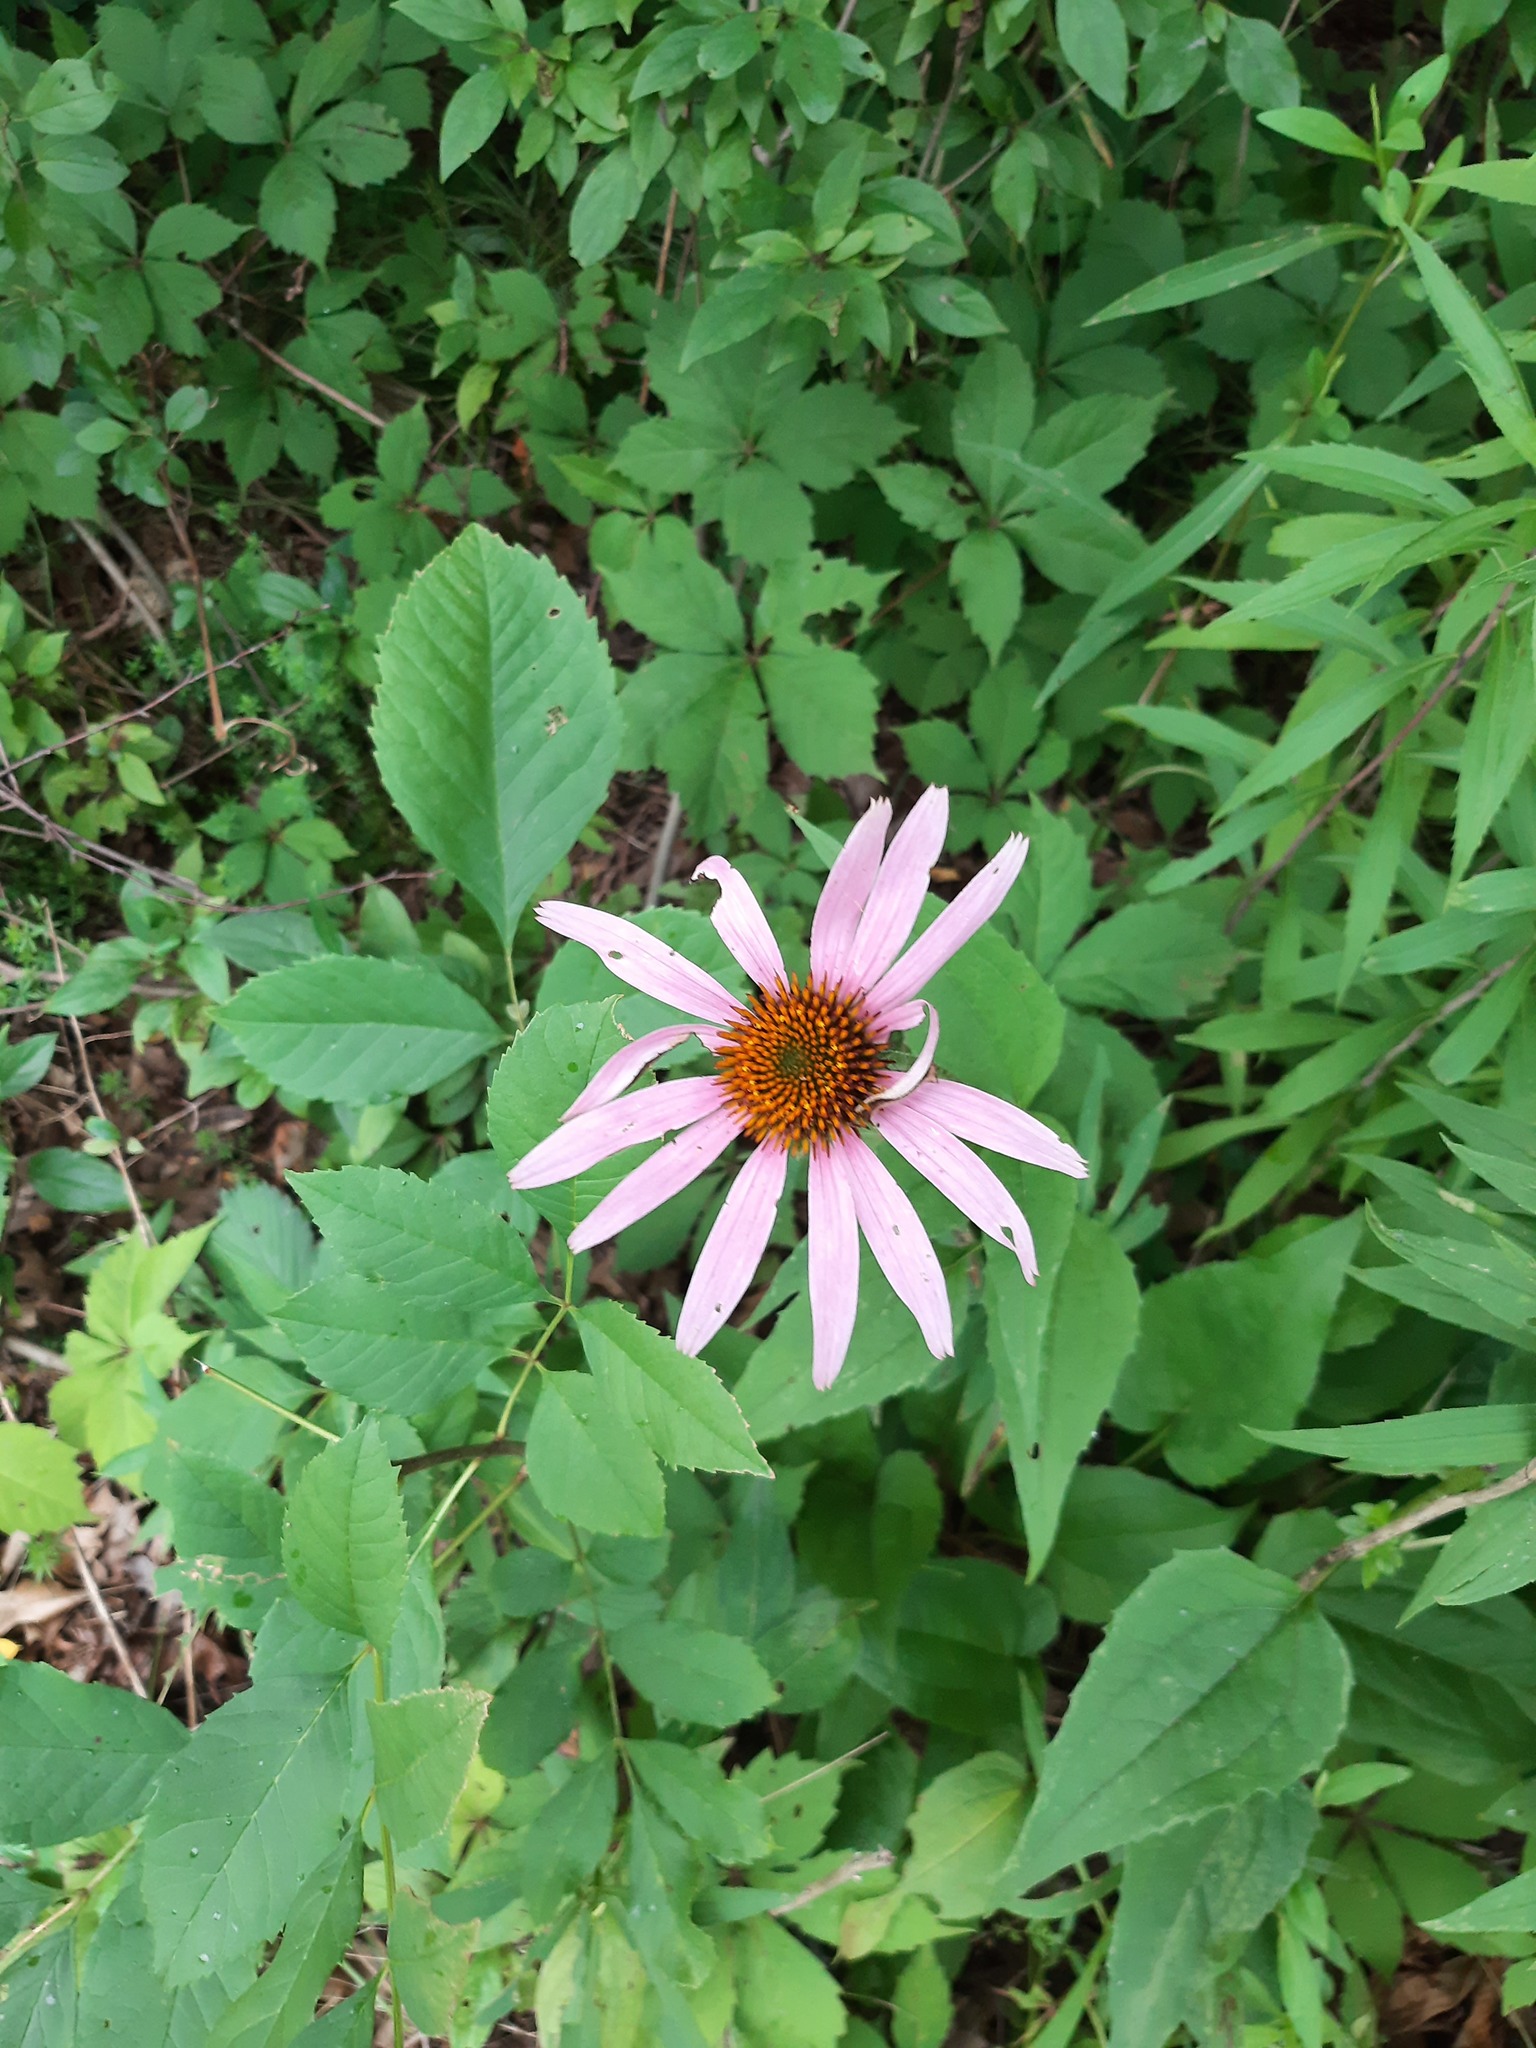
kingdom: Plantae
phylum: Tracheophyta
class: Magnoliopsida
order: Asterales
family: Asteraceae
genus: Echinacea
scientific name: Echinacea purpurea
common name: Broad-leaved purple coneflower
